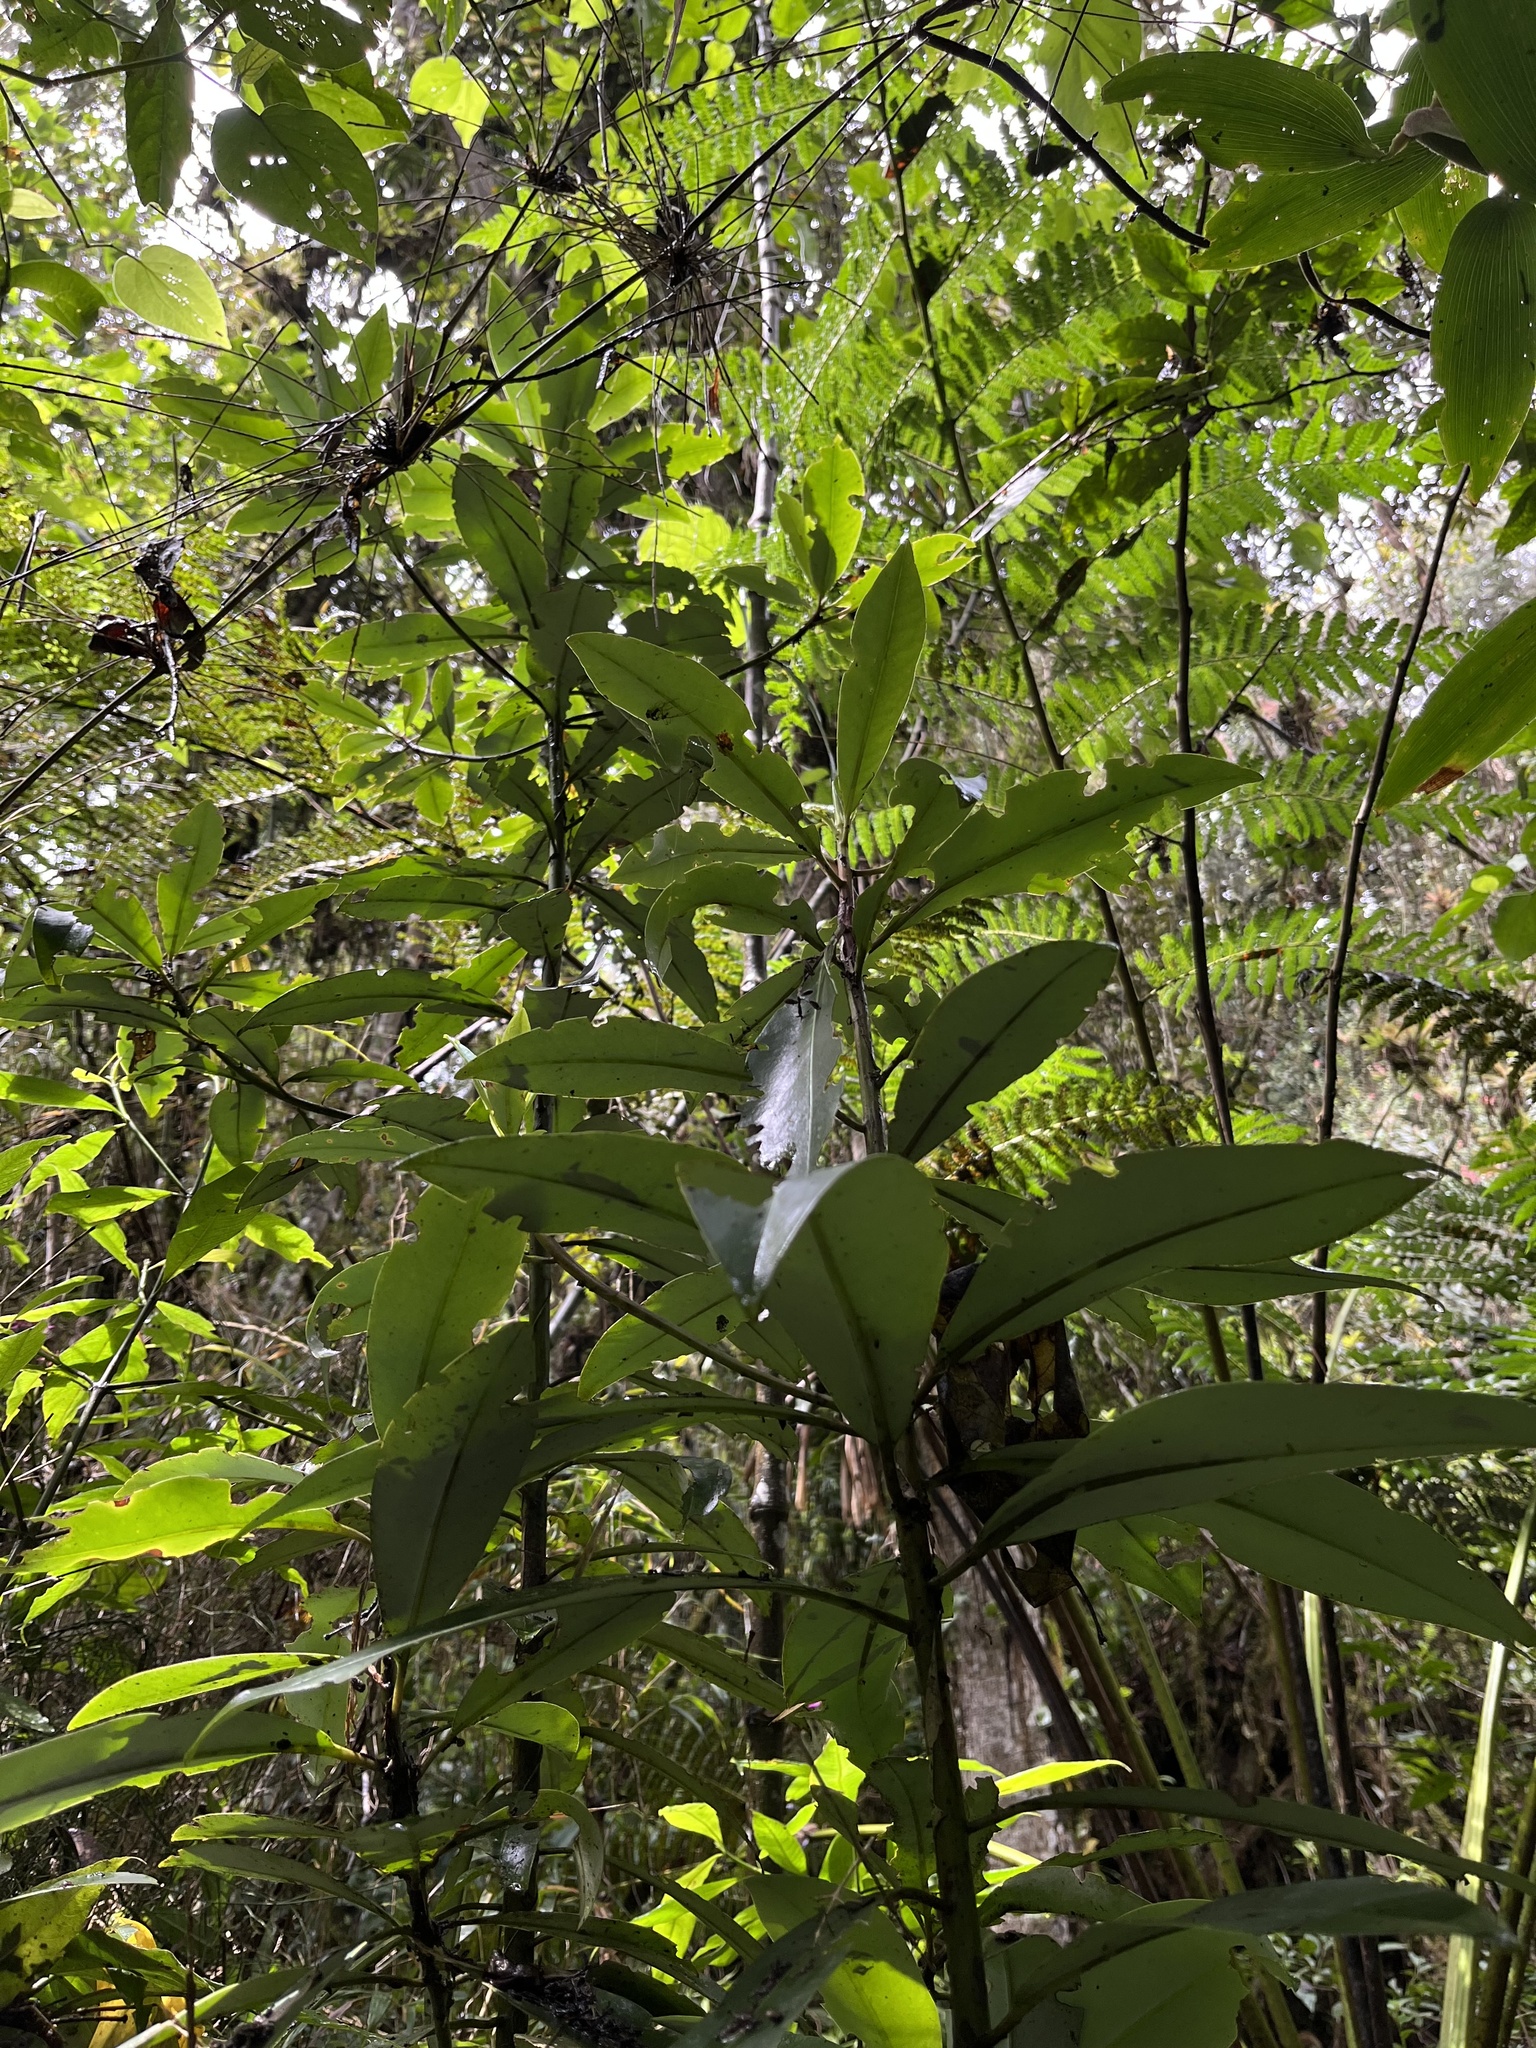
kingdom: Plantae
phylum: Tracheophyta
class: Magnoliopsida
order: Canellales
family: Winteraceae
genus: Drimys
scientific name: Drimys granadensis
